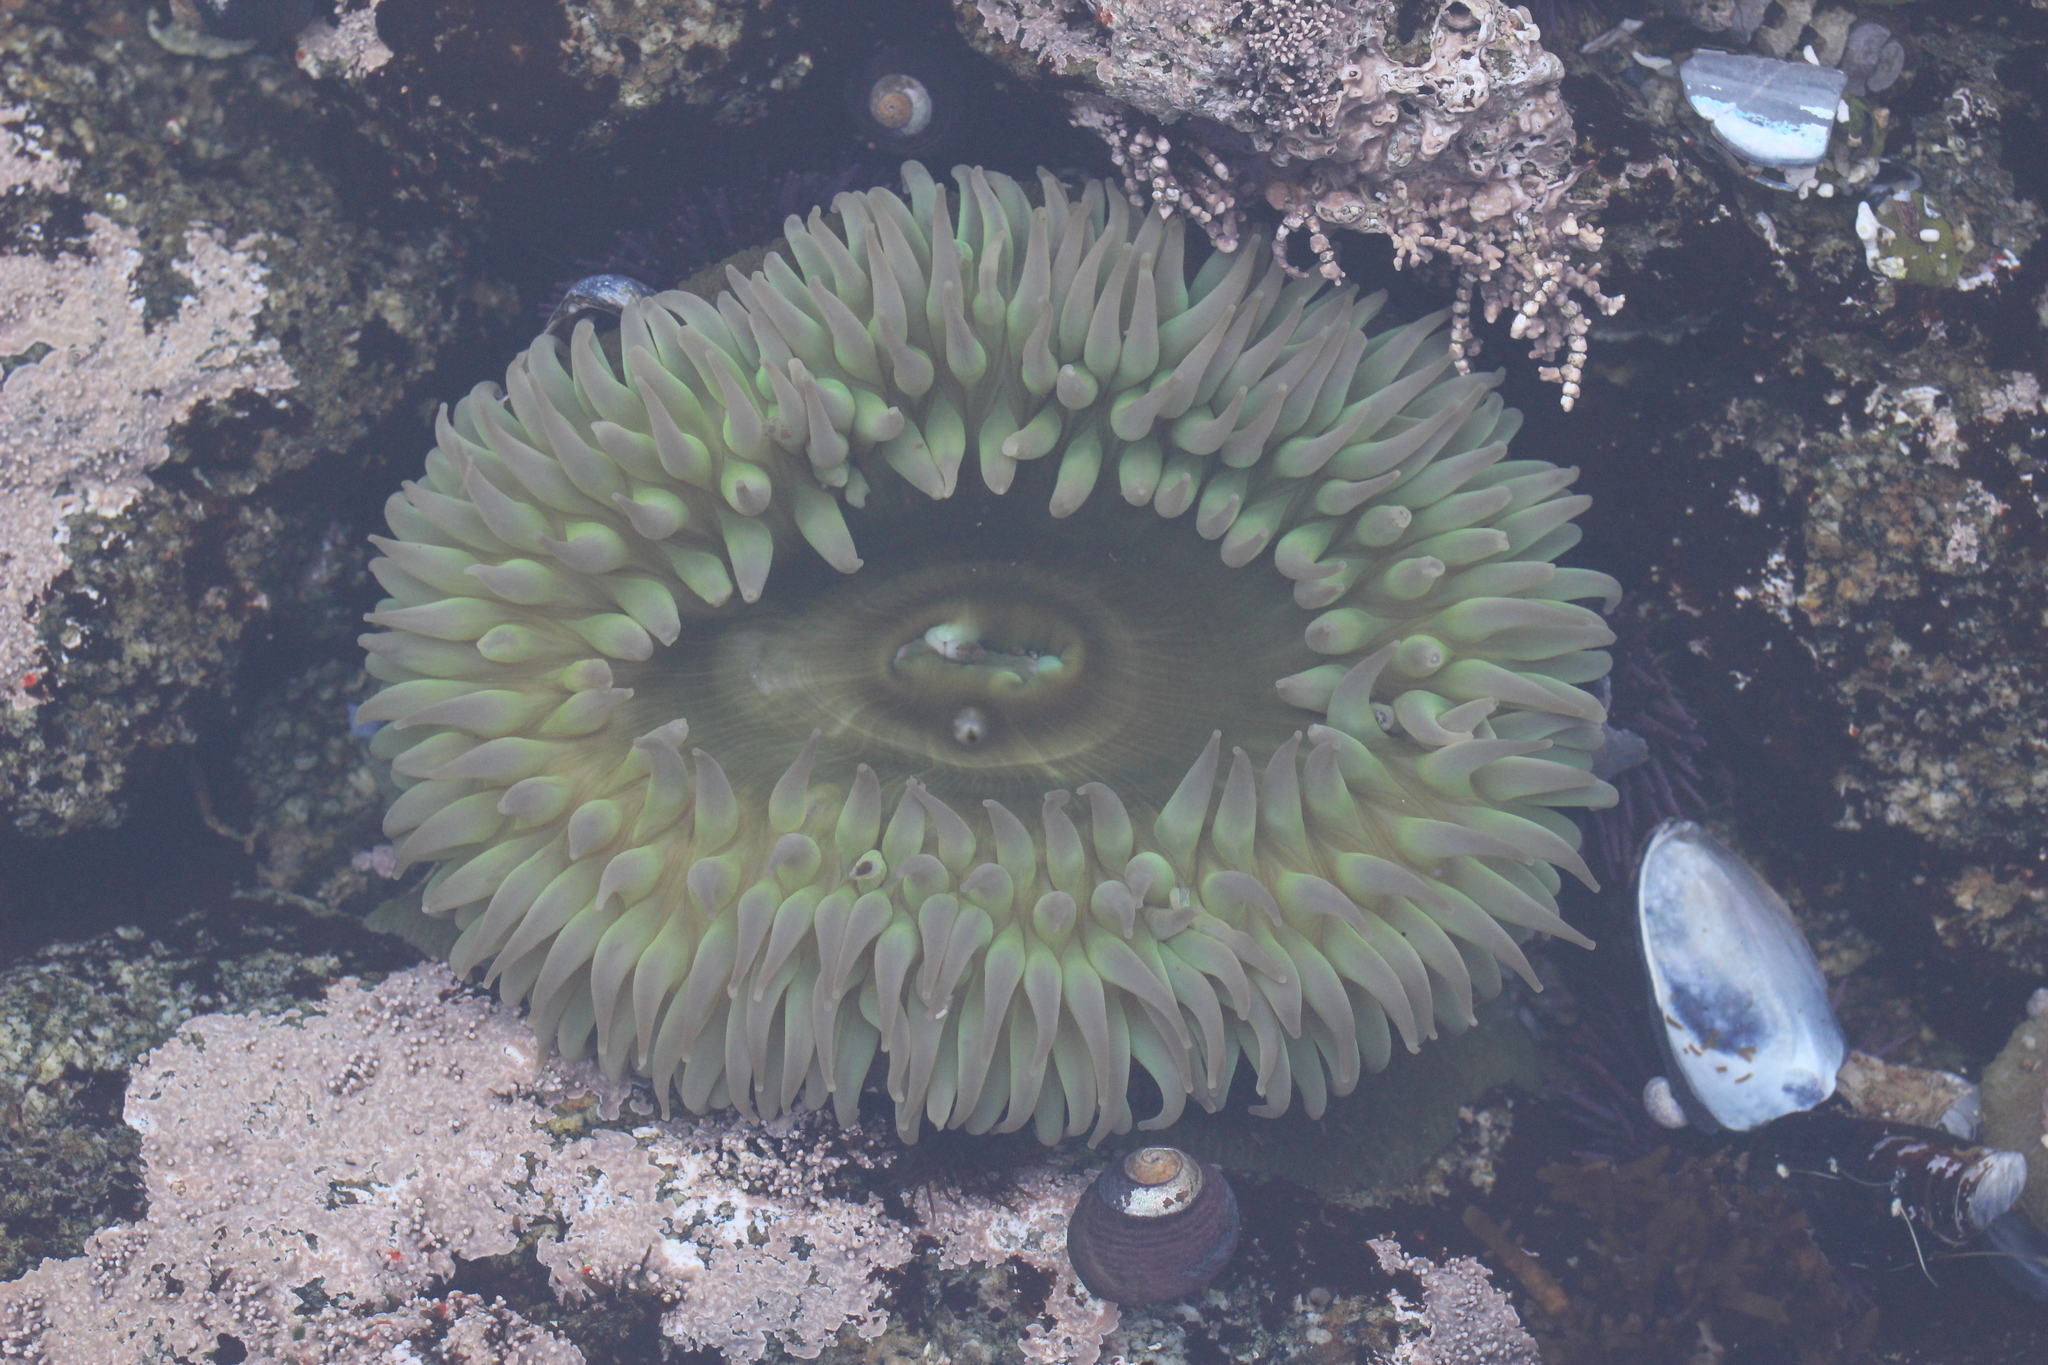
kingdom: Animalia
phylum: Cnidaria
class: Anthozoa
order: Actiniaria
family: Actiniidae
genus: Anthopleura
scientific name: Anthopleura xanthogrammica
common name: Giant green anemone
